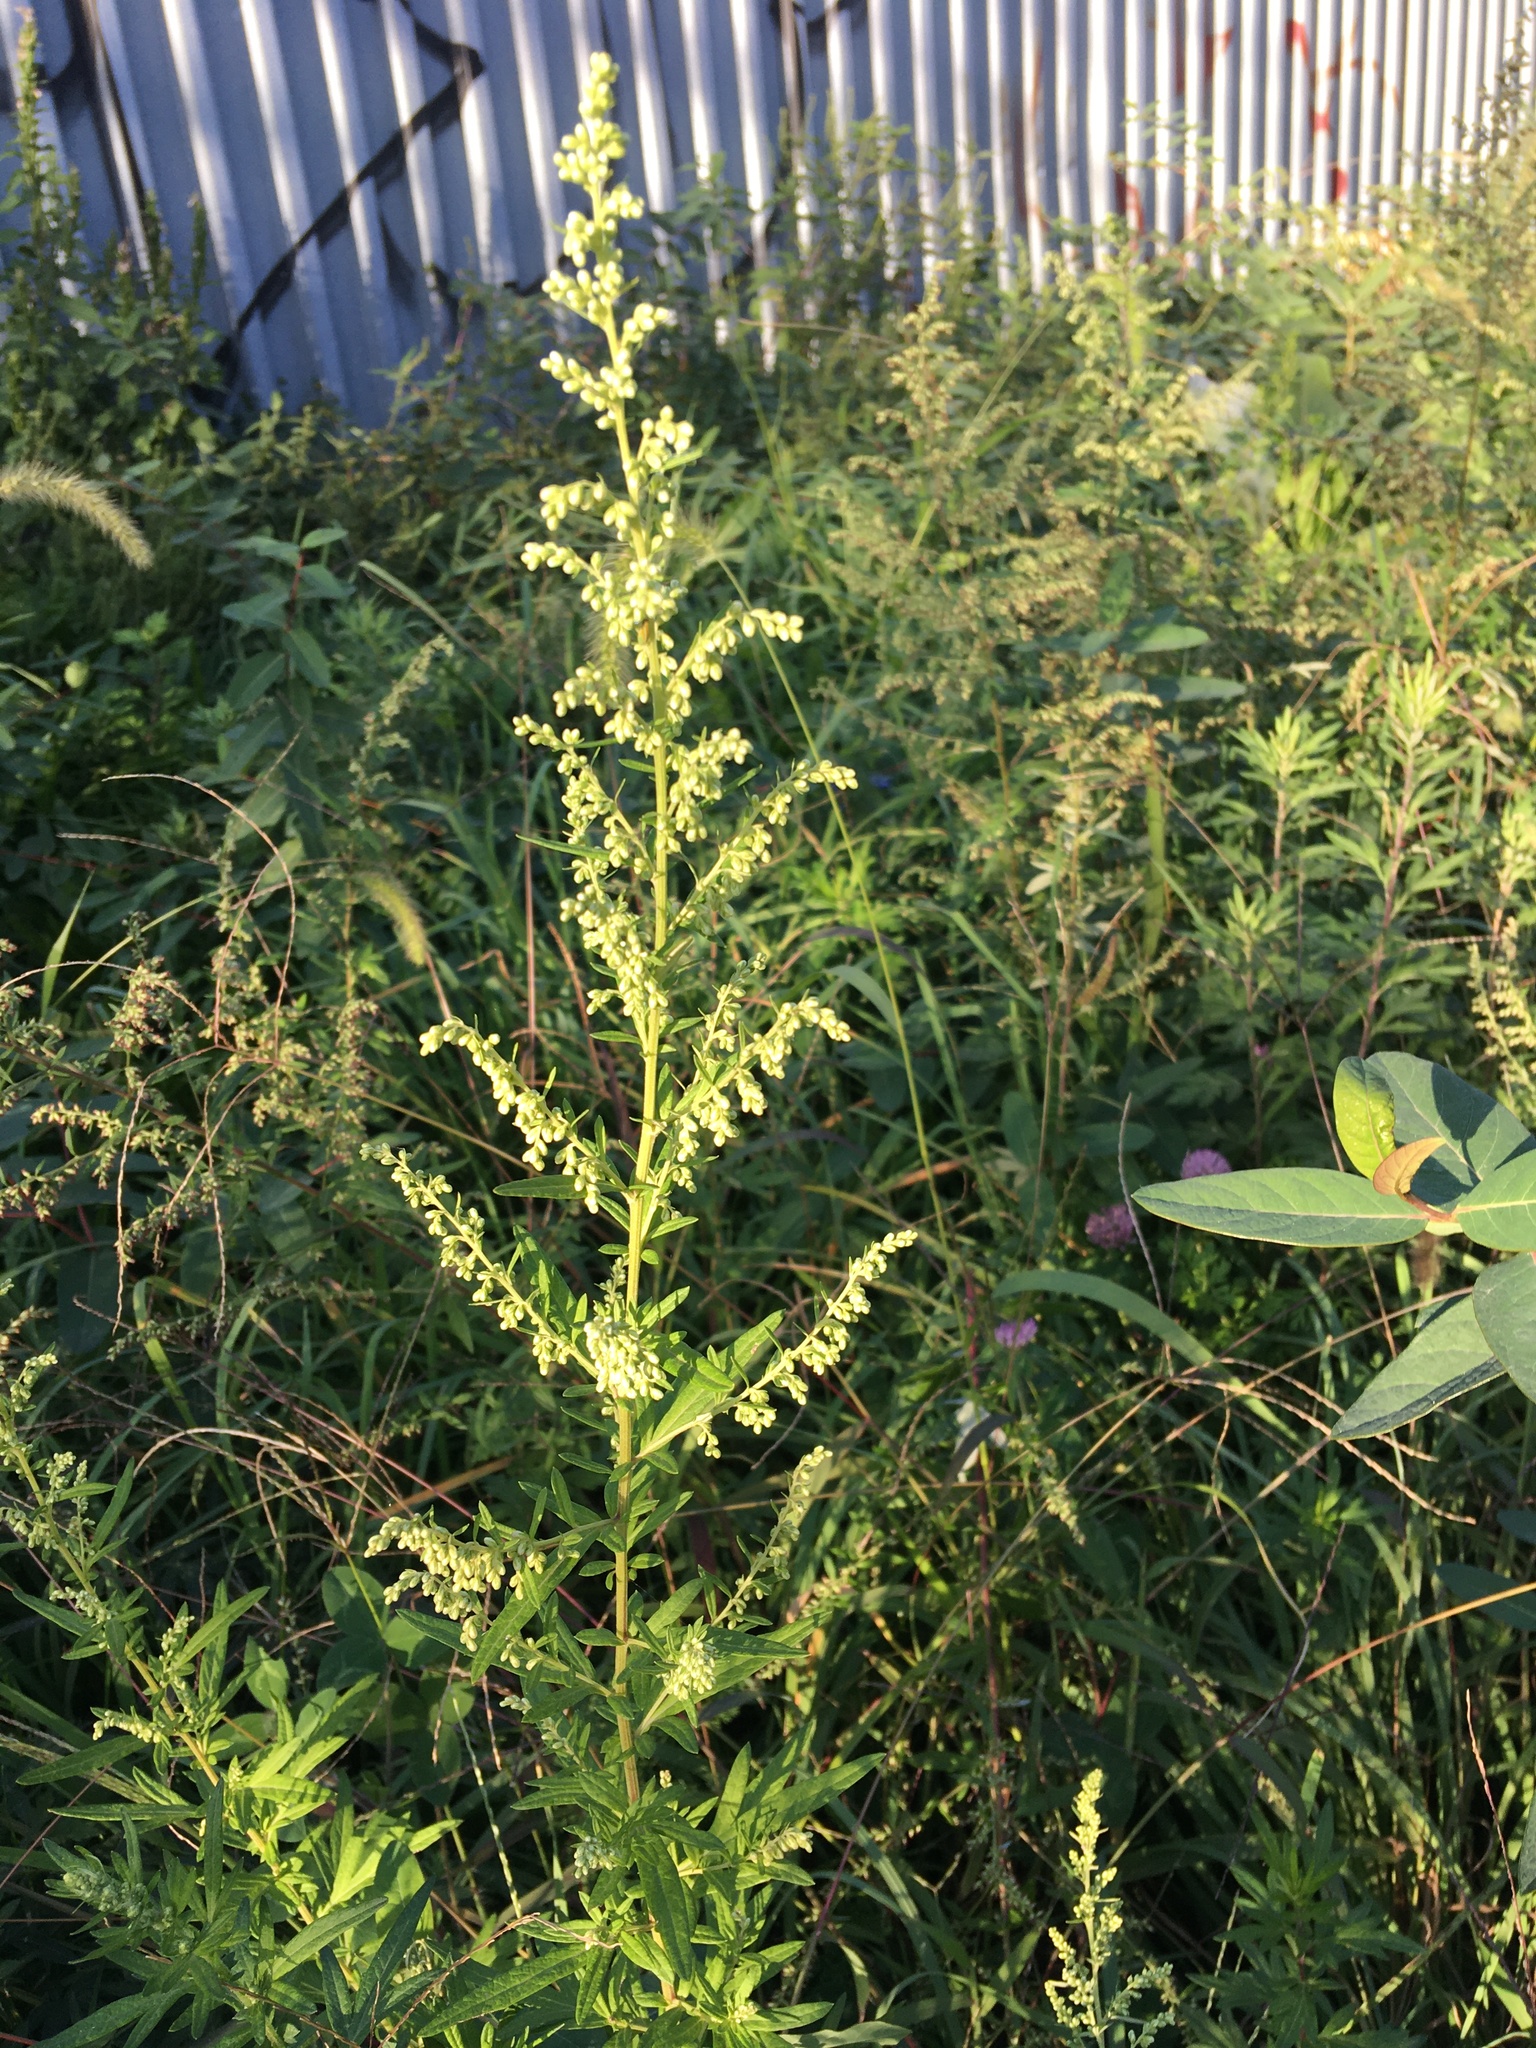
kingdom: Plantae
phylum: Tracheophyta
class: Magnoliopsida
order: Asterales
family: Asteraceae
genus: Artemisia
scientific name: Artemisia vulgaris
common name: Mugwort
